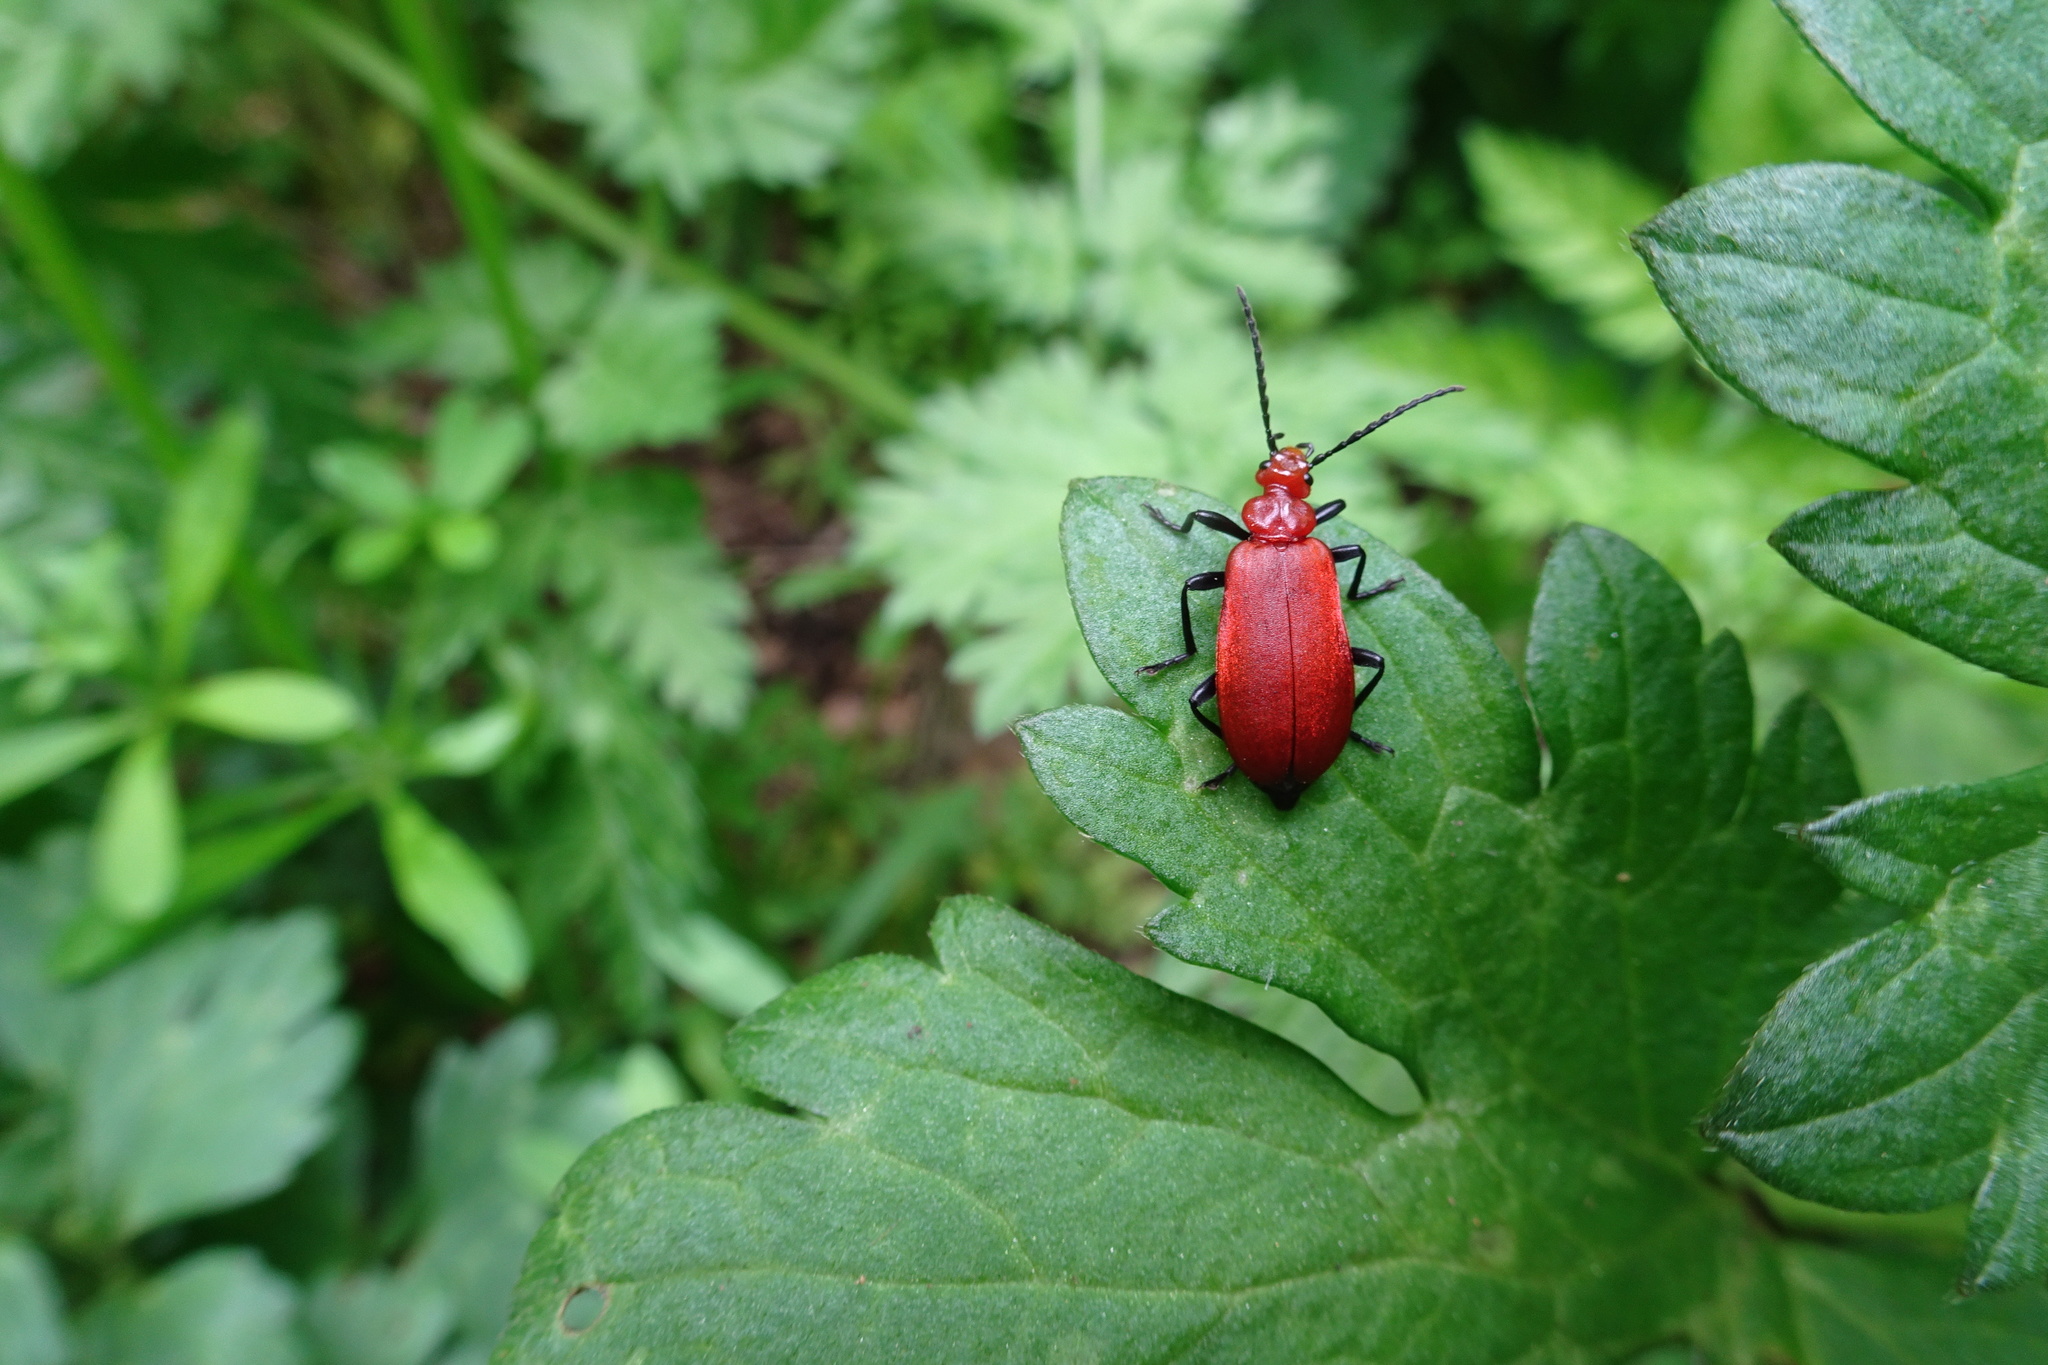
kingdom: Animalia
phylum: Arthropoda
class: Insecta
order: Coleoptera
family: Pyrochroidae
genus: Pyrochroa
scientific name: Pyrochroa serraticornis
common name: Red-headed cardinal beetle
